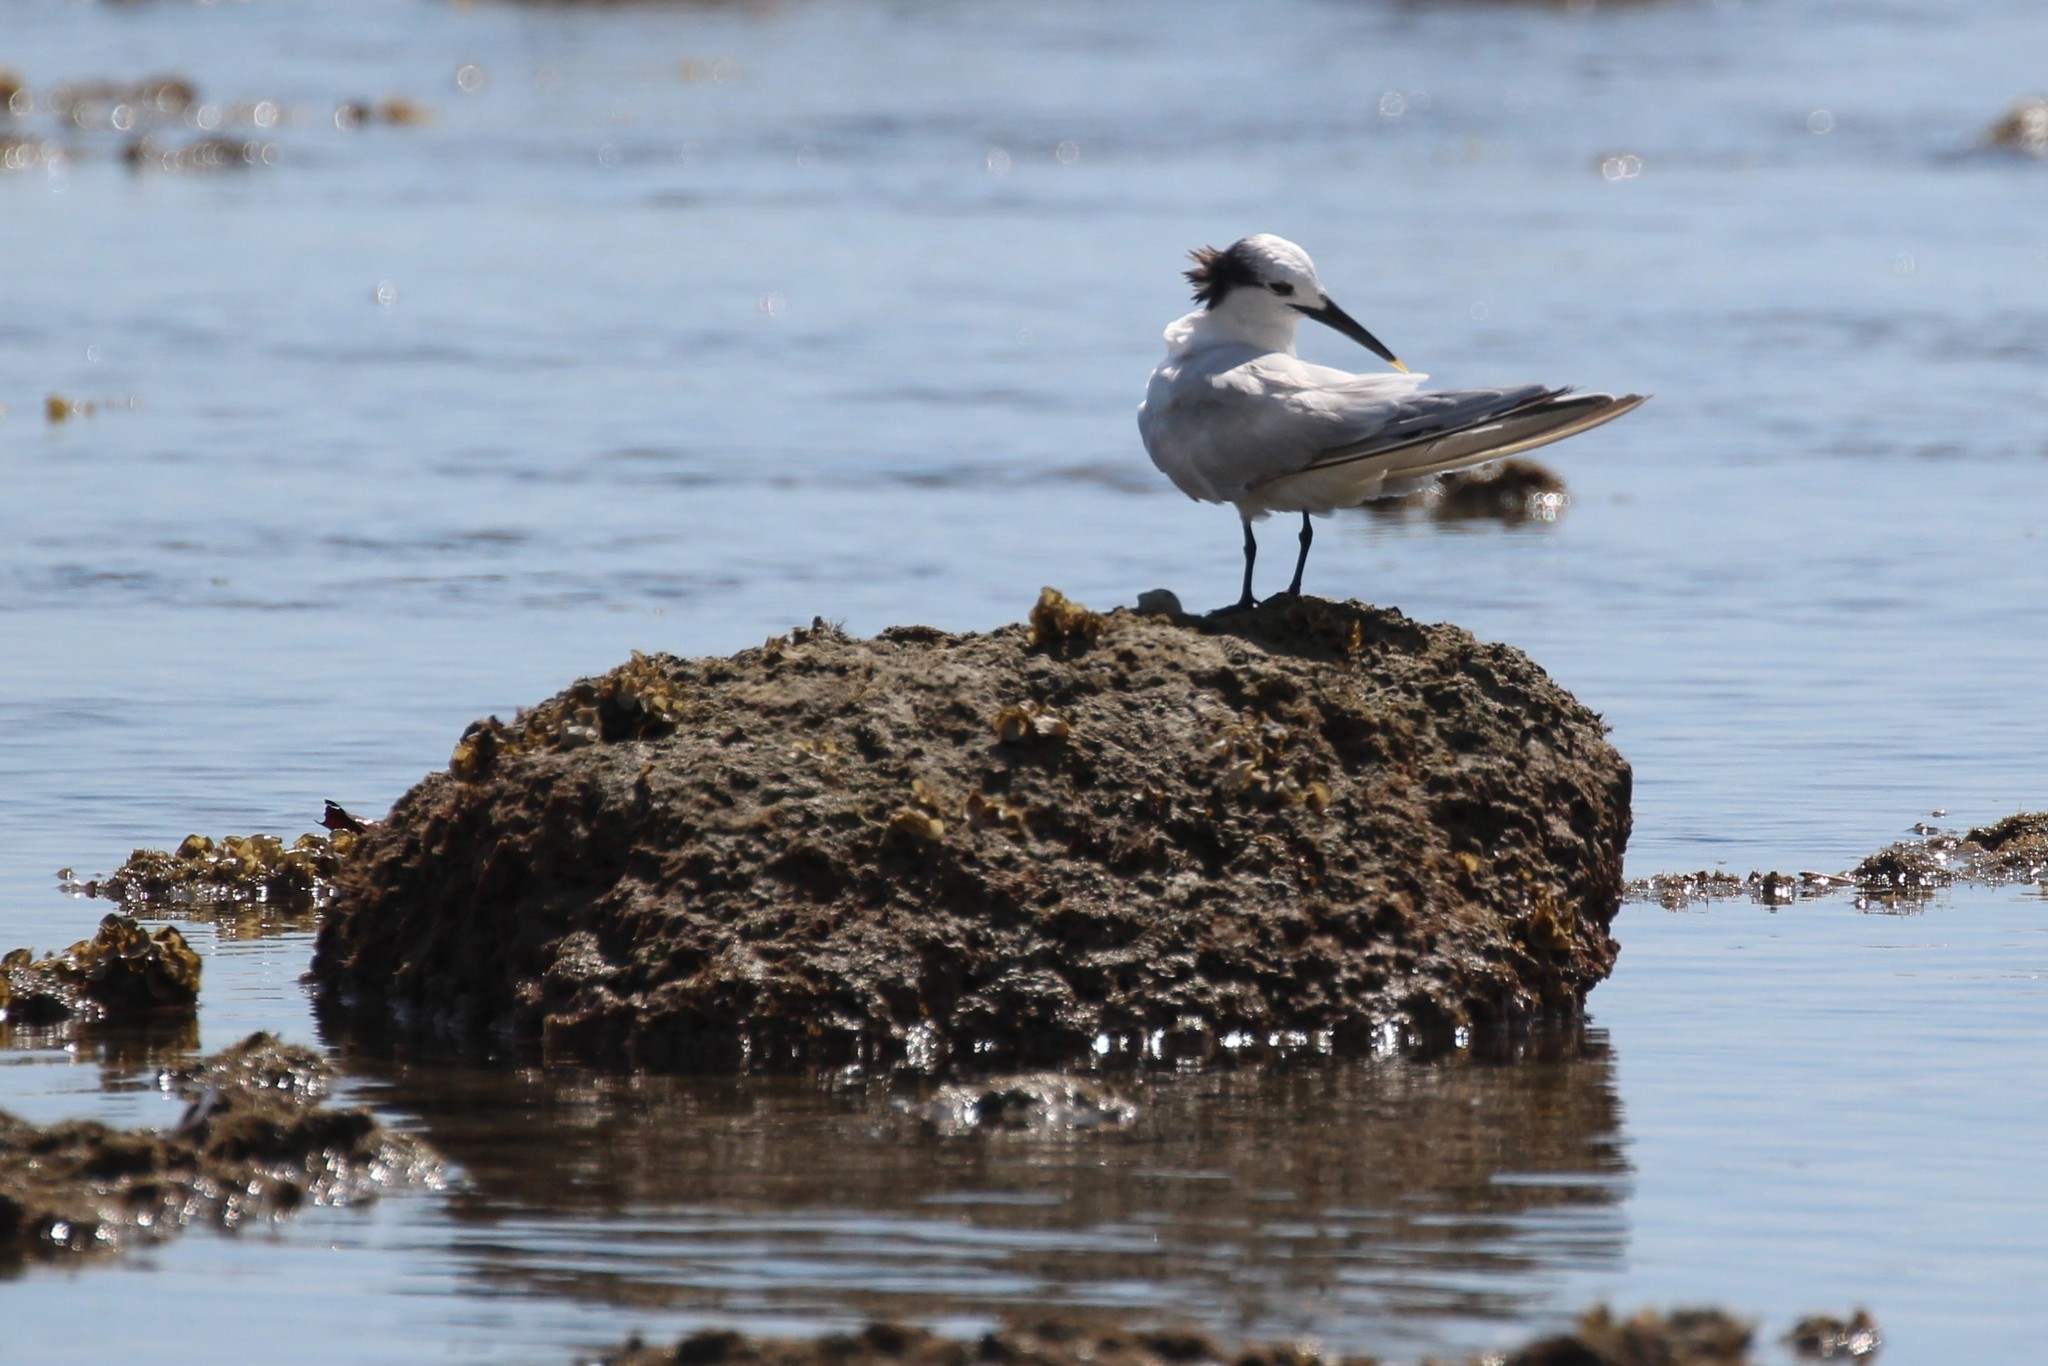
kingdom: Animalia
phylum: Chordata
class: Aves
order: Charadriiformes
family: Laridae
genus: Thalasseus
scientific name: Thalasseus sandvicensis
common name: Sandwich tern
